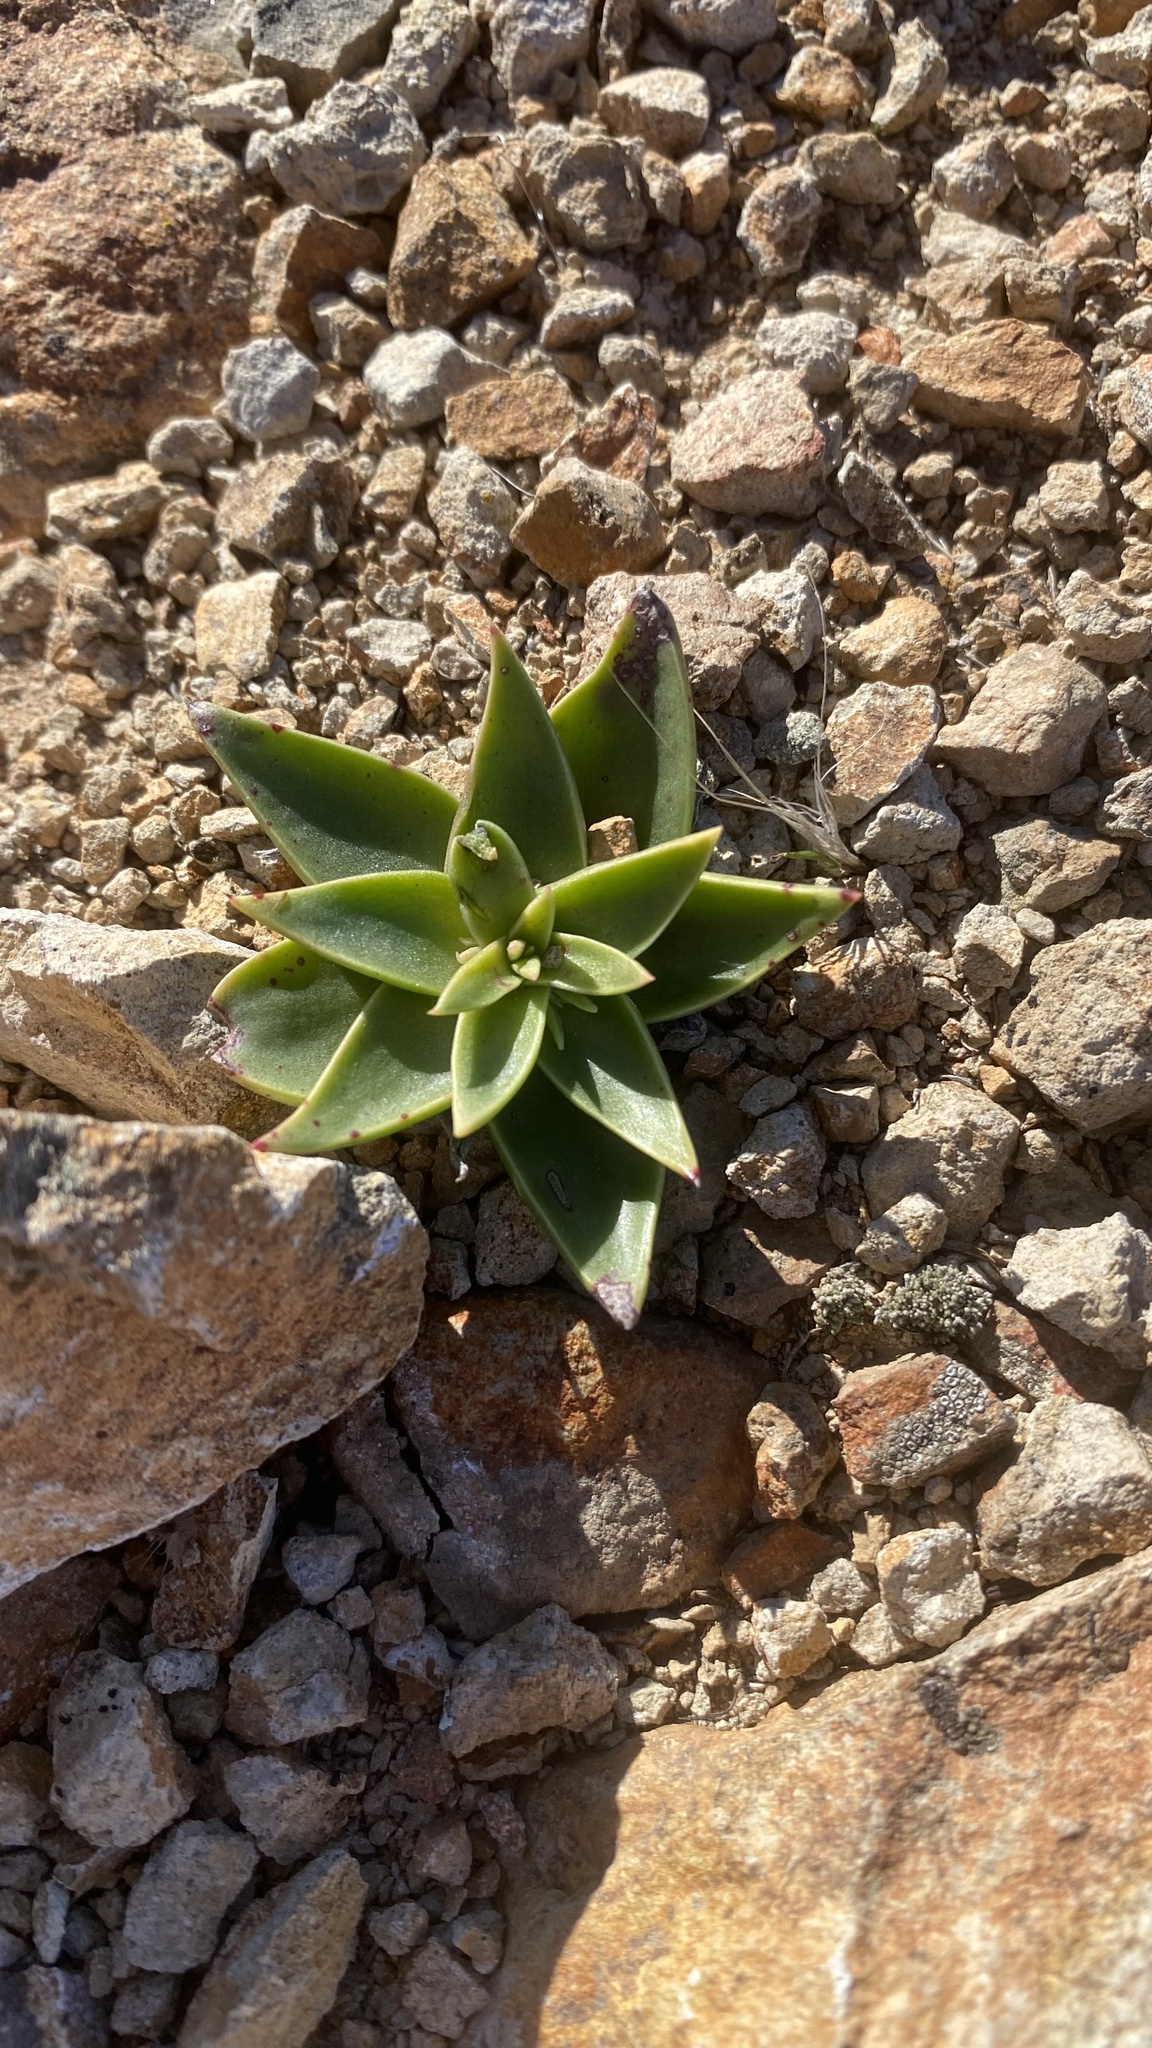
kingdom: Plantae
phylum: Tracheophyta
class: Magnoliopsida
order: Saxifragales
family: Crassulaceae
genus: Dudleya
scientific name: Dudleya lanceolata
